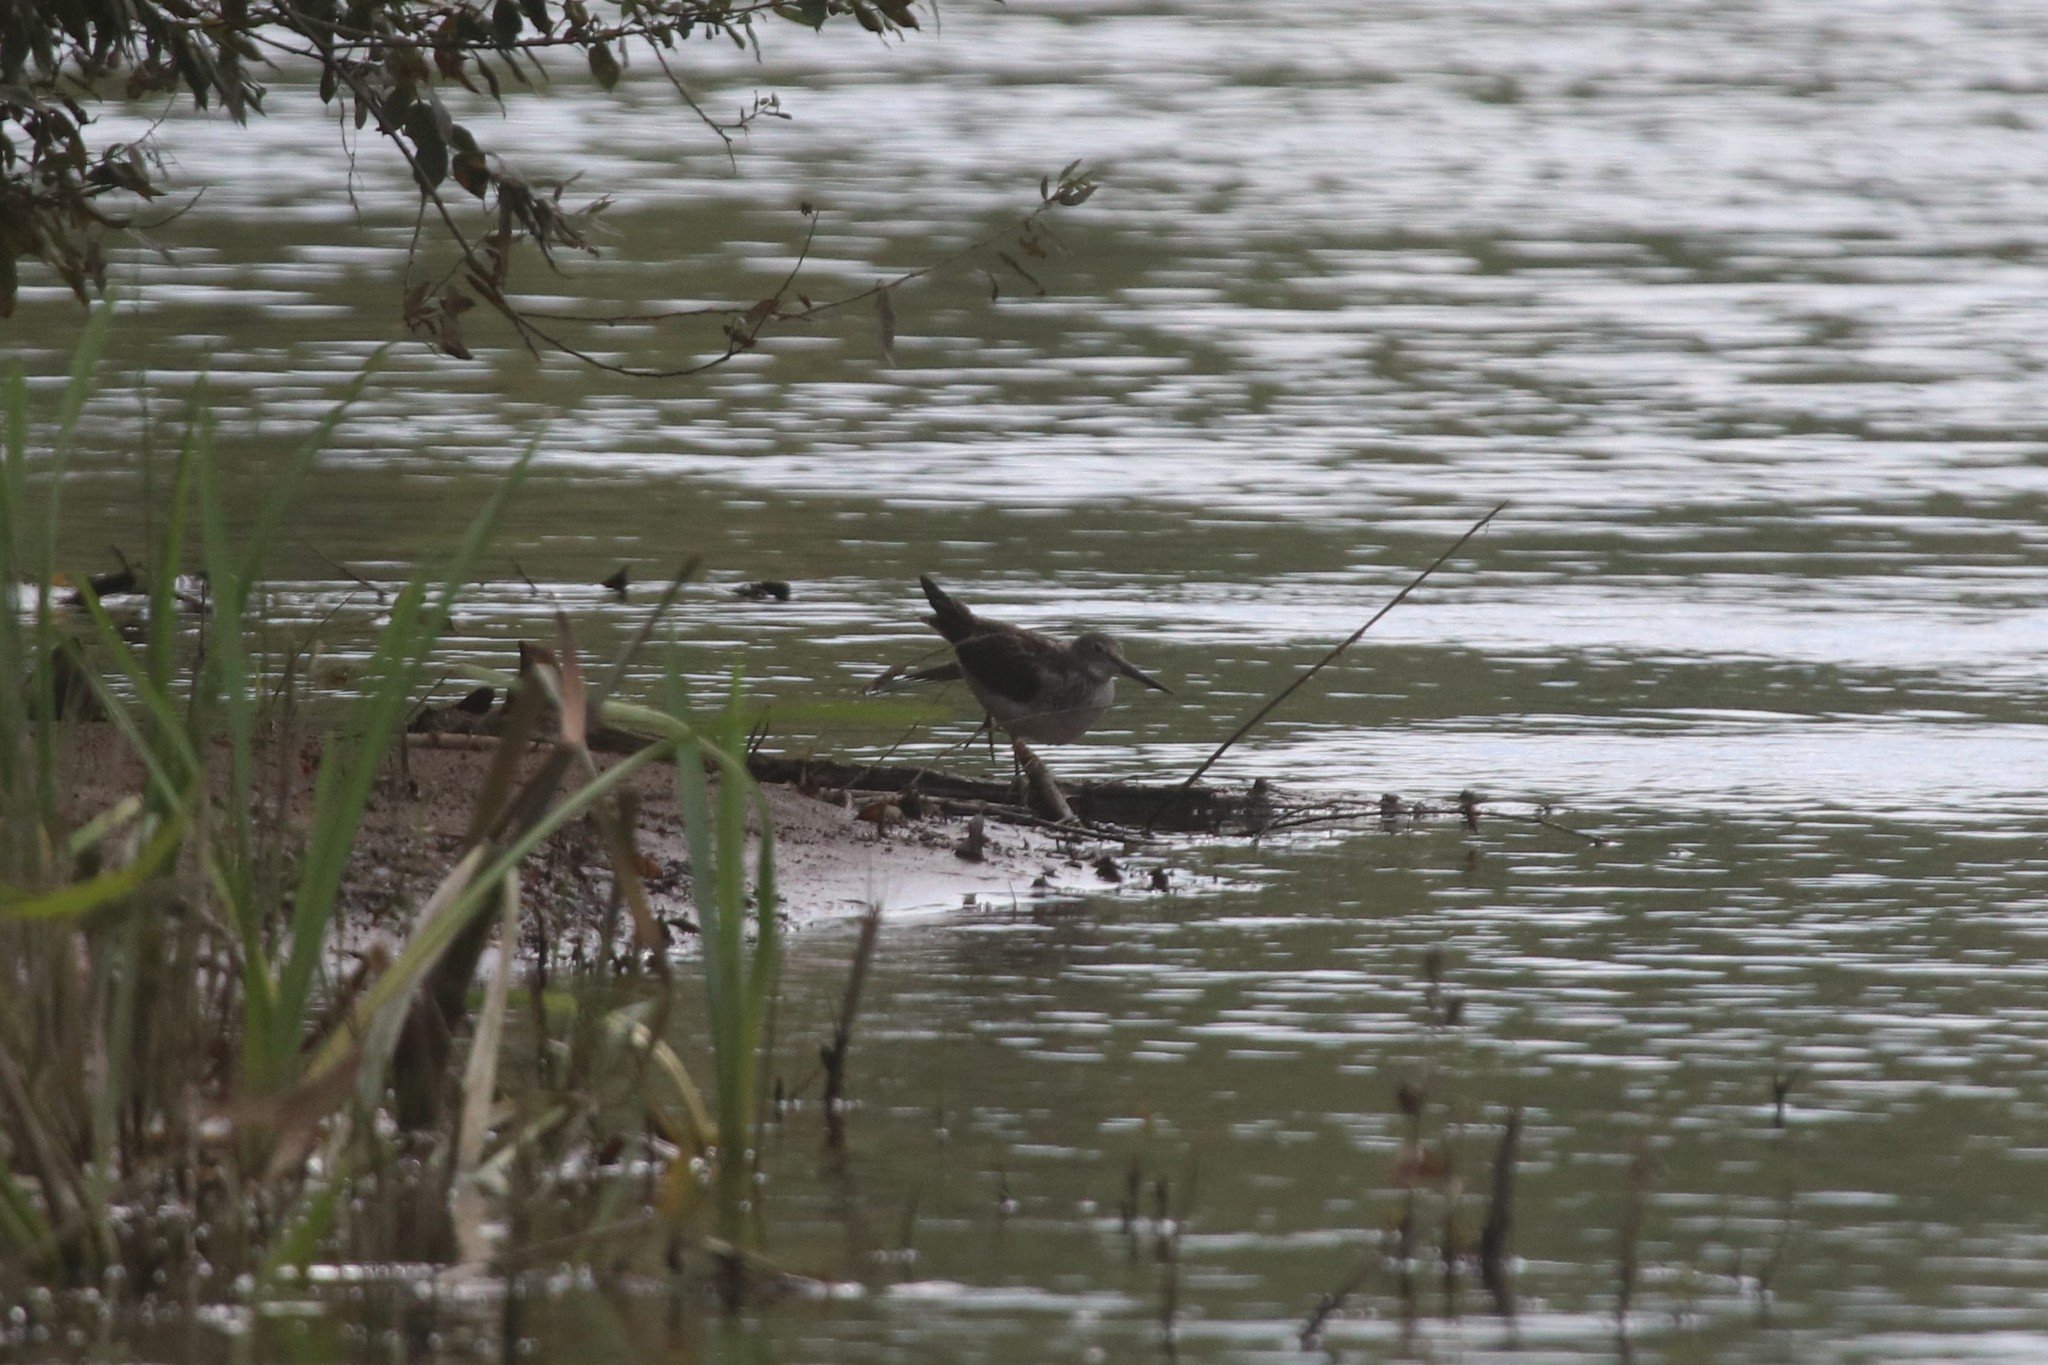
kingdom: Animalia
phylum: Chordata
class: Aves
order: Charadriiformes
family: Scolopacidae
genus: Tringa
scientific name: Tringa nebularia
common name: Common greenshank
